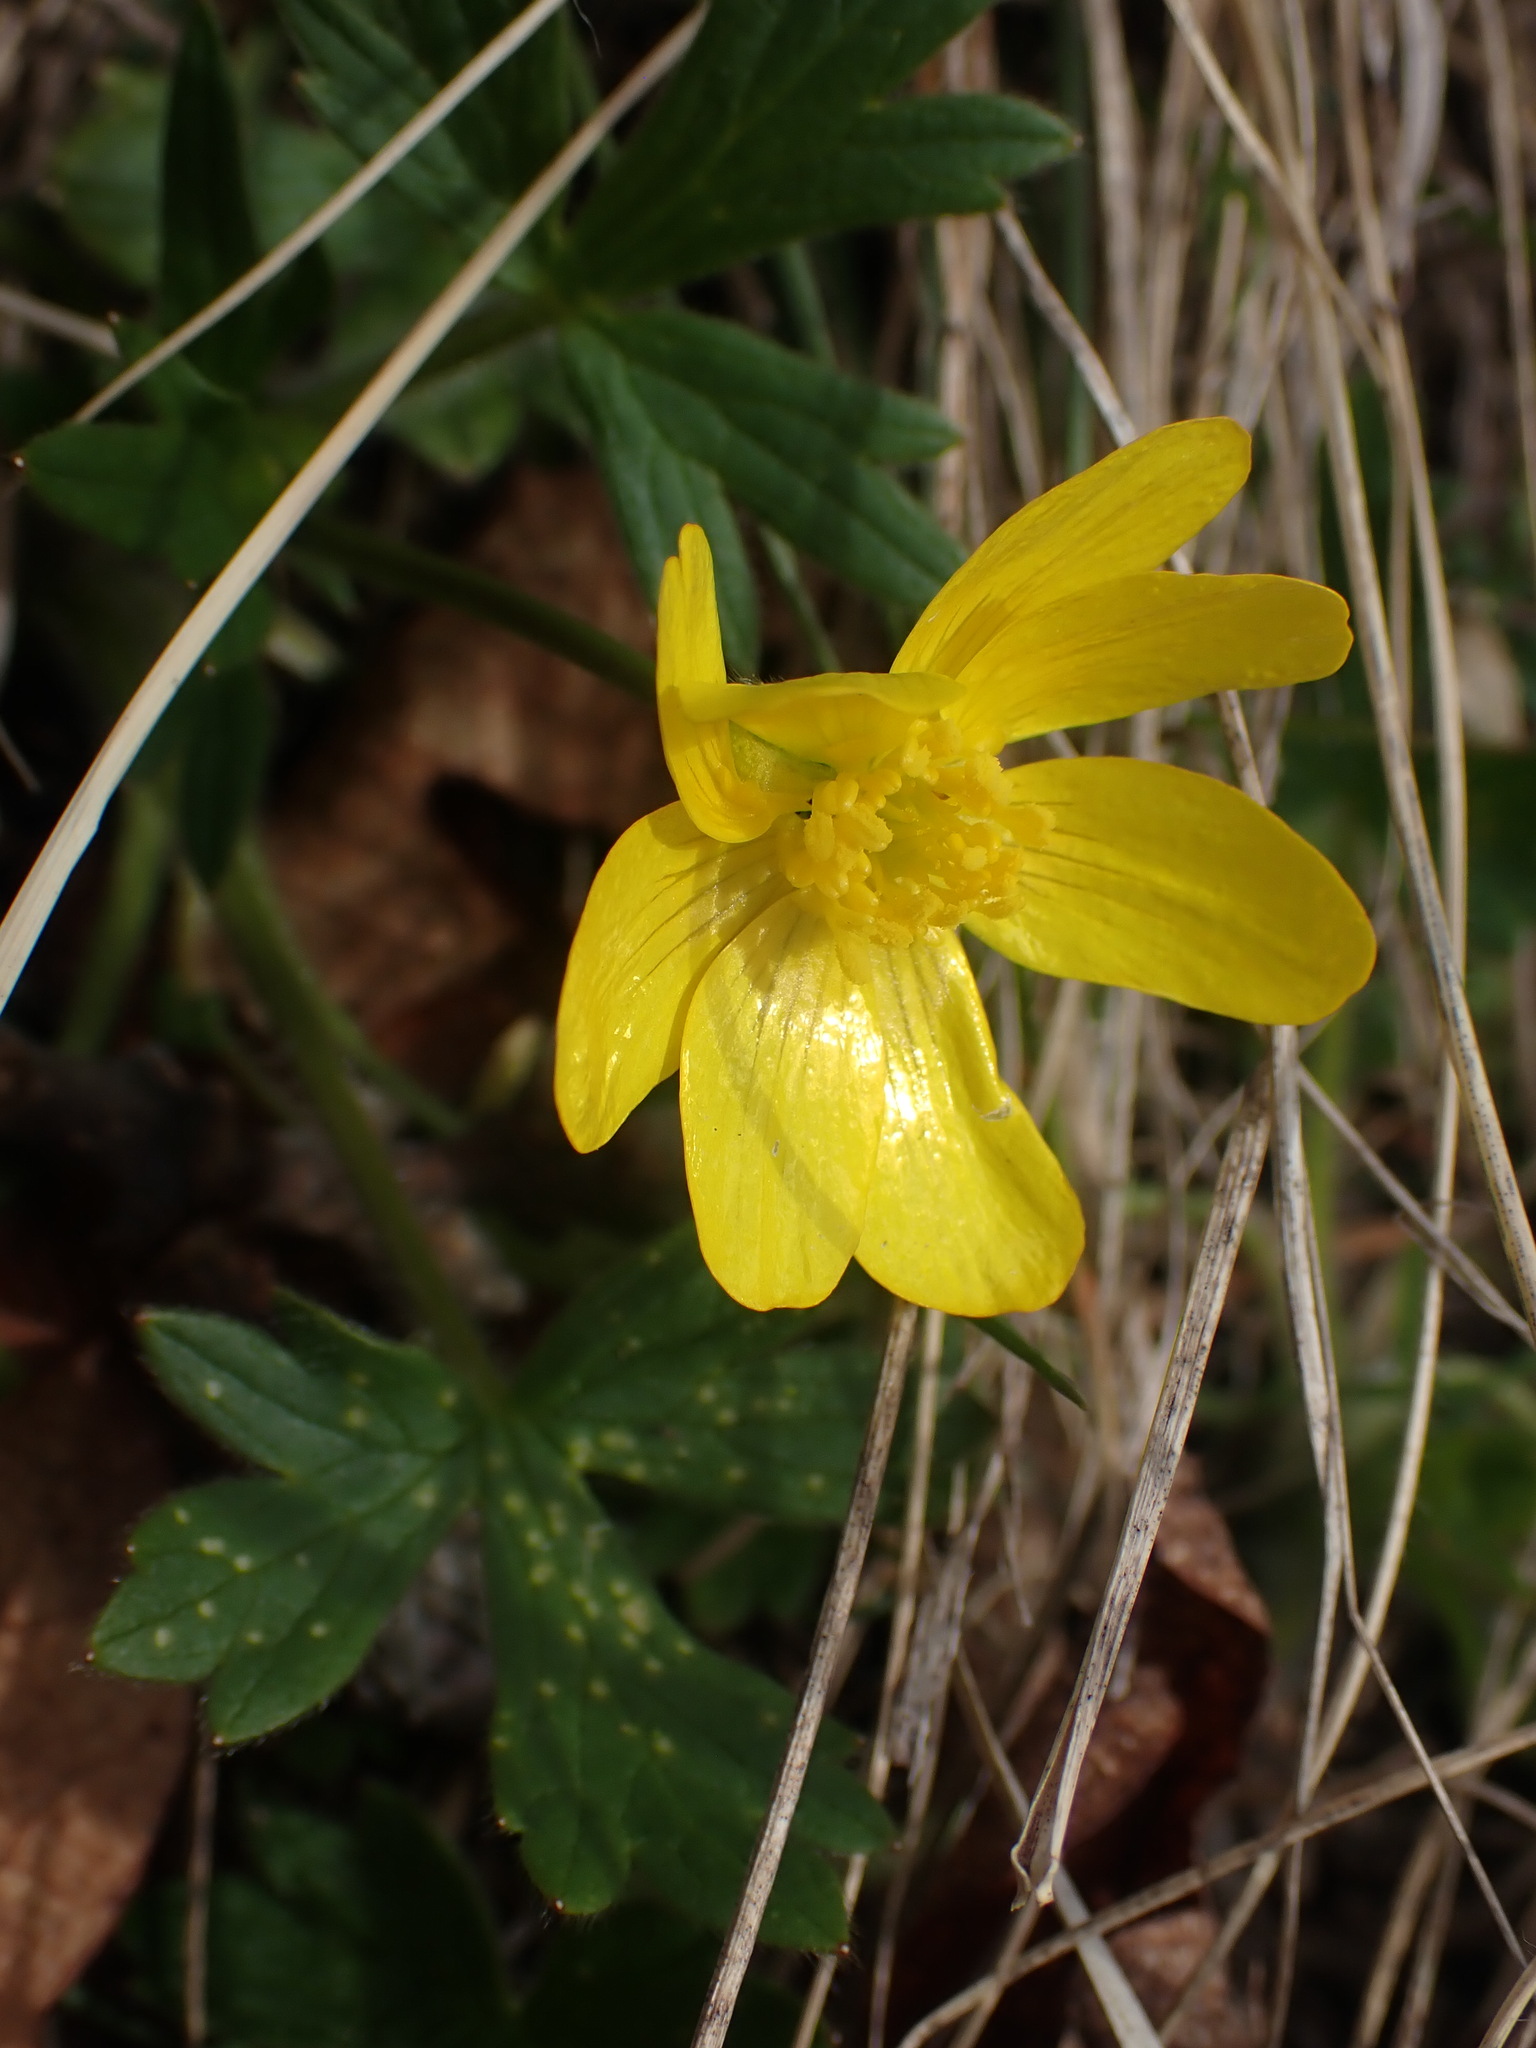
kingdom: Plantae
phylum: Tracheophyta
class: Magnoliopsida
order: Ranunculales
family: Ranunculaceae
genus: Ranunculus
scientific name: Ranunculus occidentalis
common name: Western buttercup
